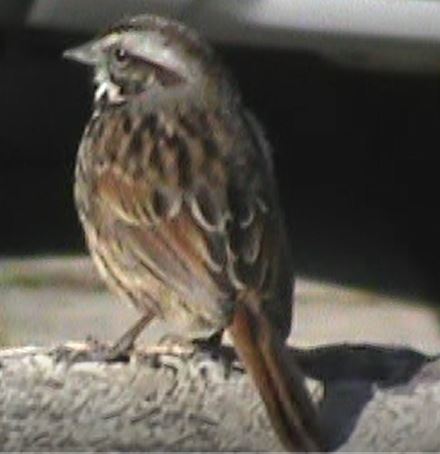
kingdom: Animalia
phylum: Chordata
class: Aves
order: Passeriformes
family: Passerellidae
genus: Melospiza
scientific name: Melospiza melodia
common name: Song sparrow
